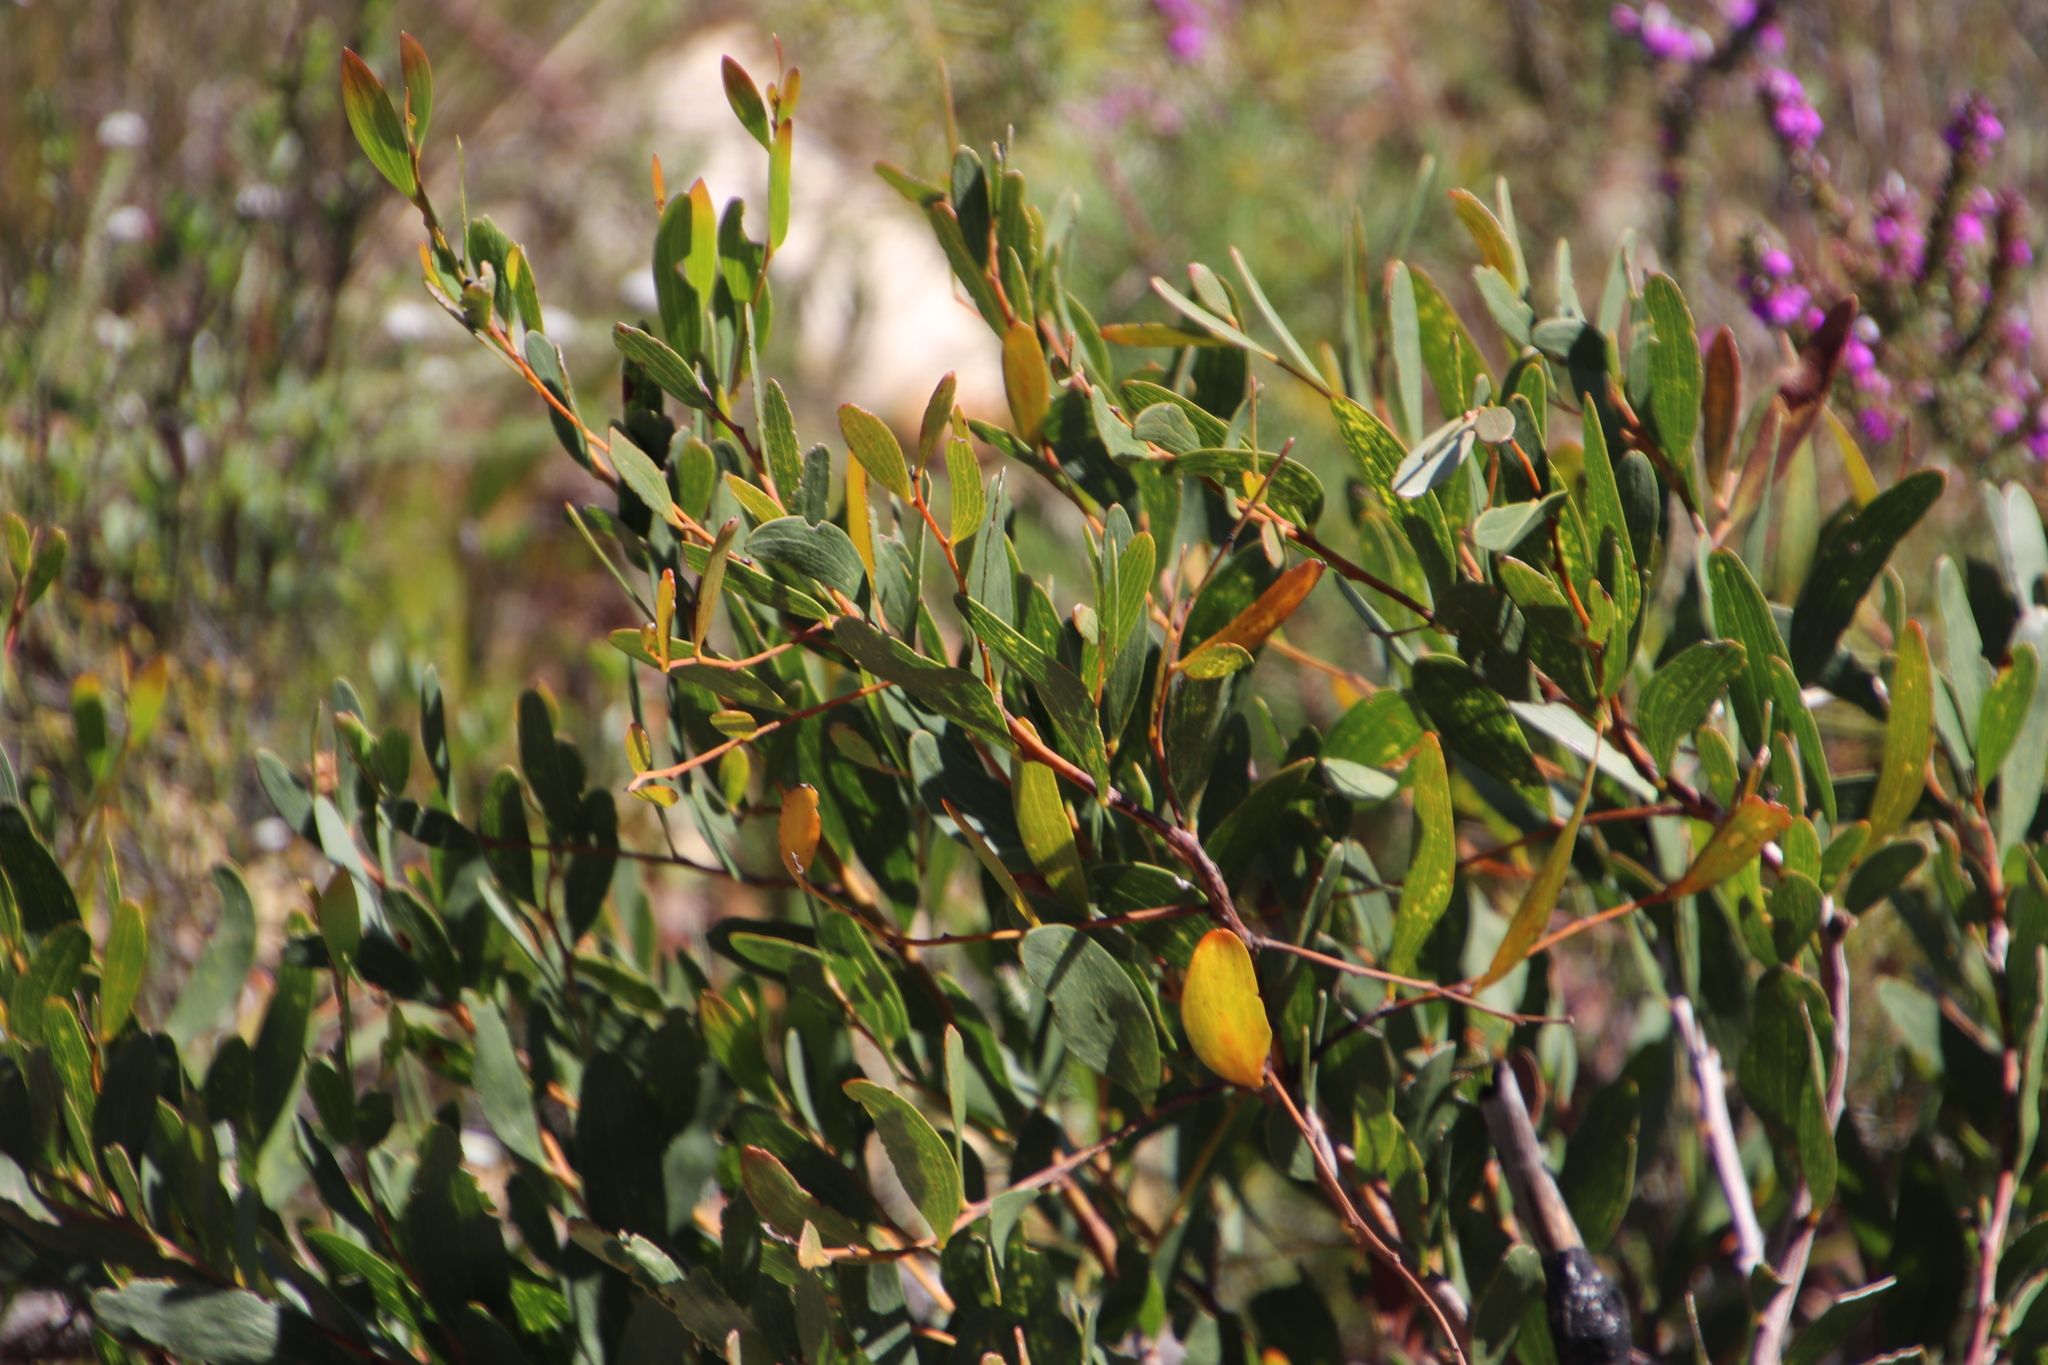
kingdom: Plantae
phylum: Tracheophyta
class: Magnoliopsida
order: Fabales
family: Fabaceae
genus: Acacia
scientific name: Acacia cyclops
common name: Coastal wattle
